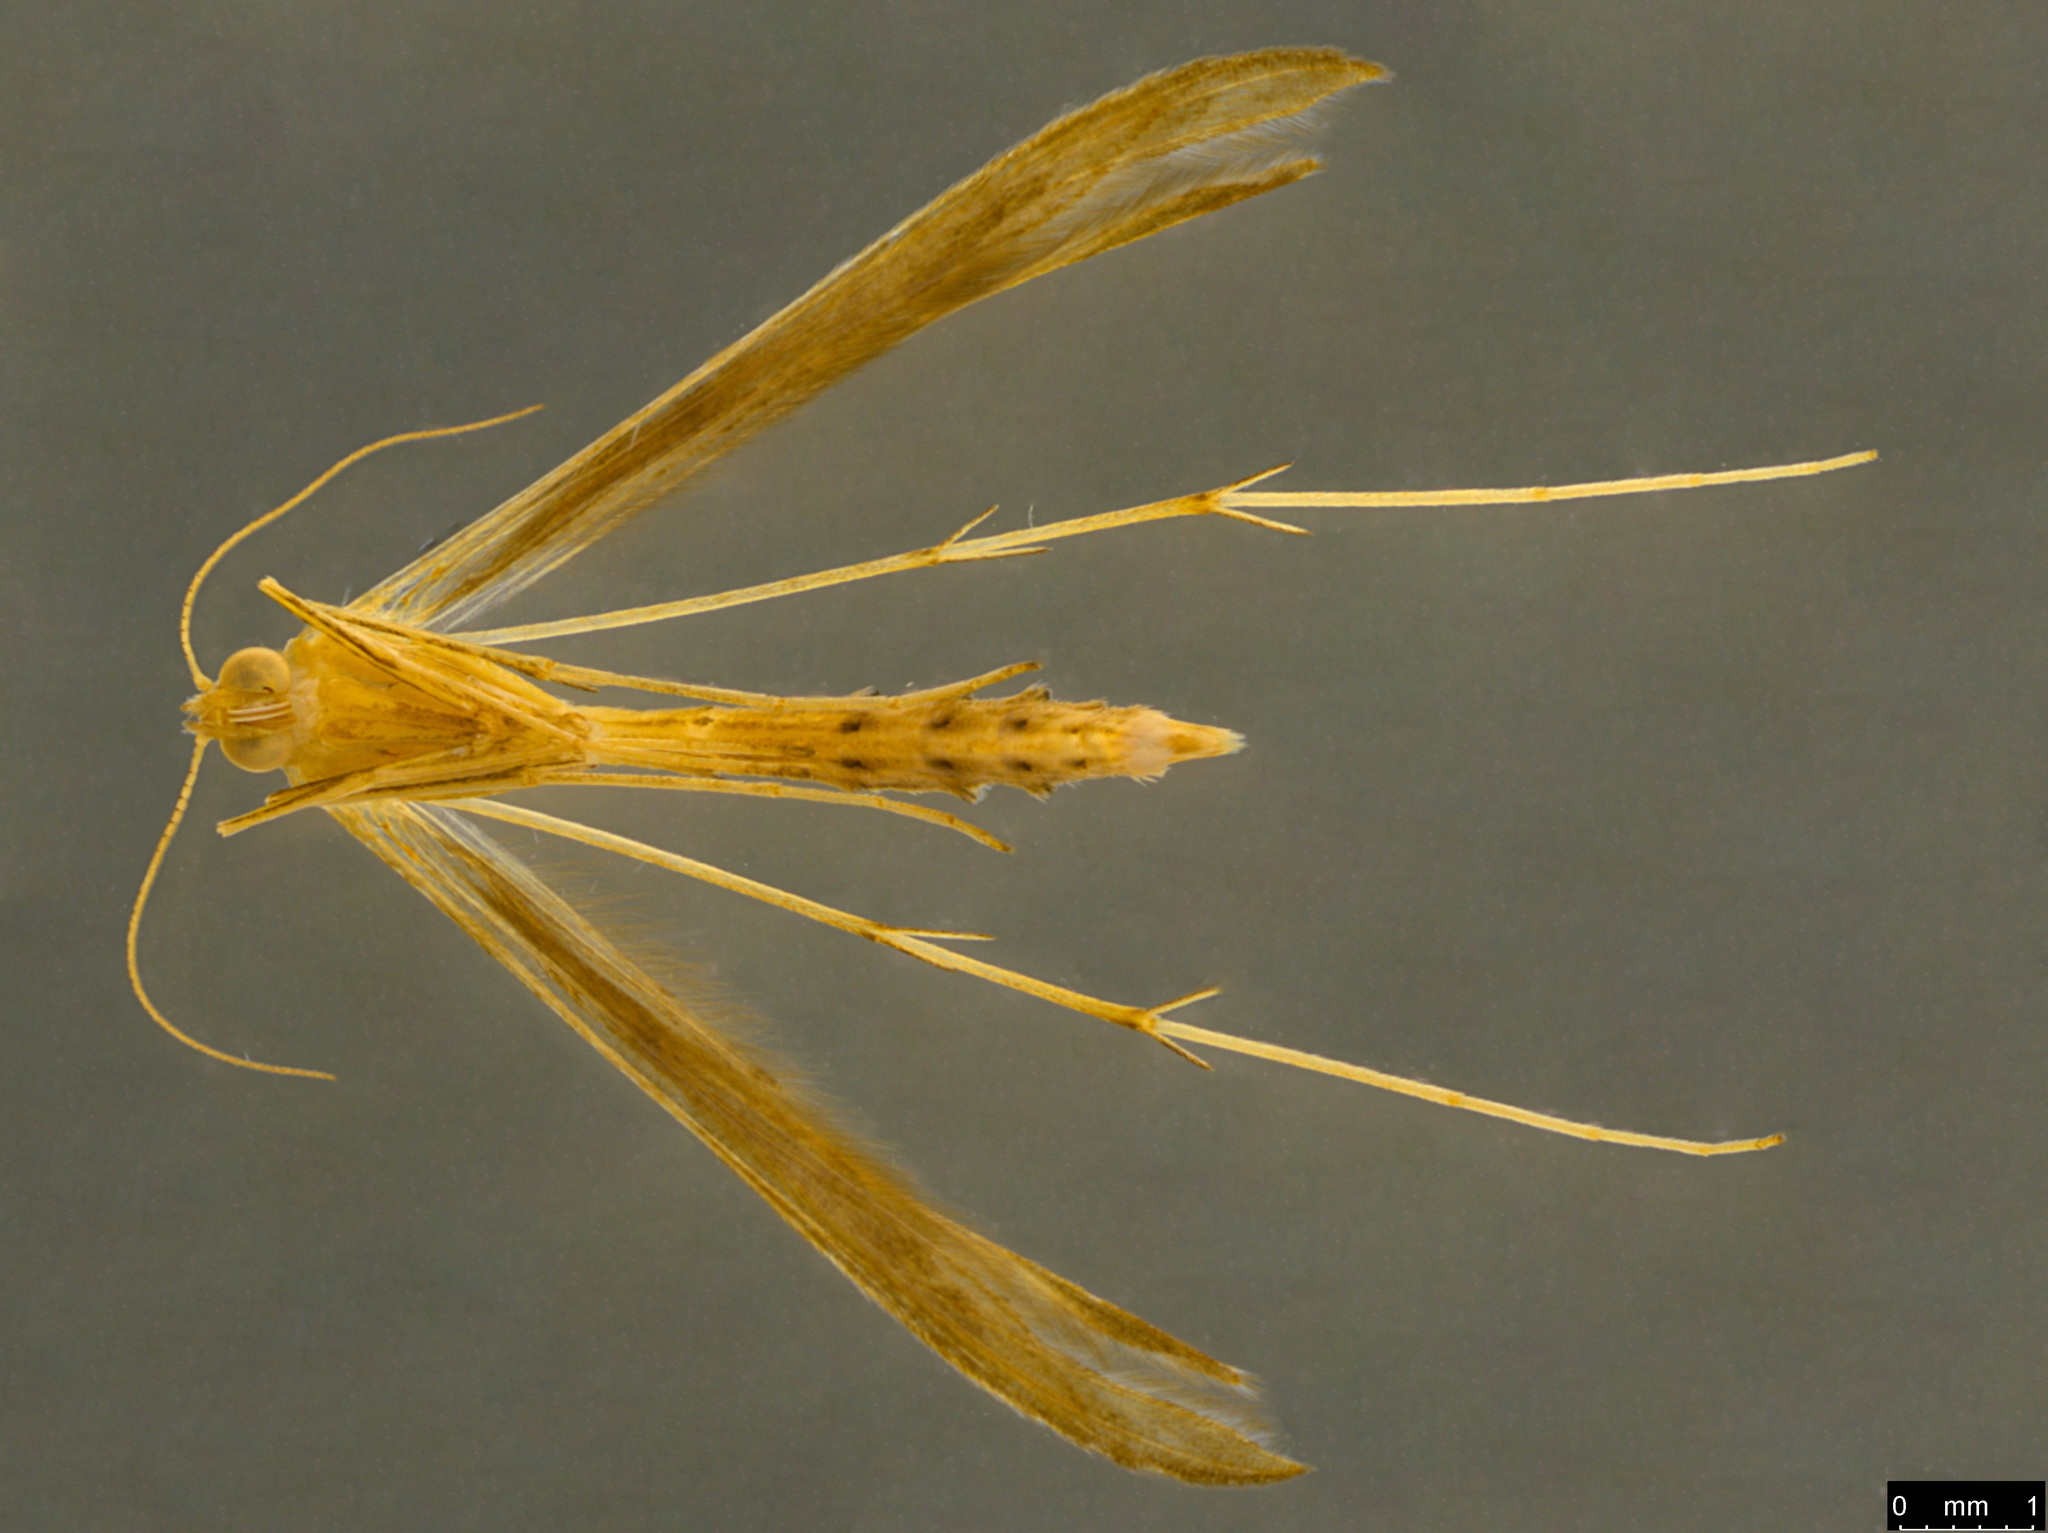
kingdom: Animalia
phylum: Arthropoda
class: Insecta
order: Lepidoptera
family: Pterophoridae
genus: Stenoptilia
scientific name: Stenoptilia zophodactylus
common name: Dowdy plume
